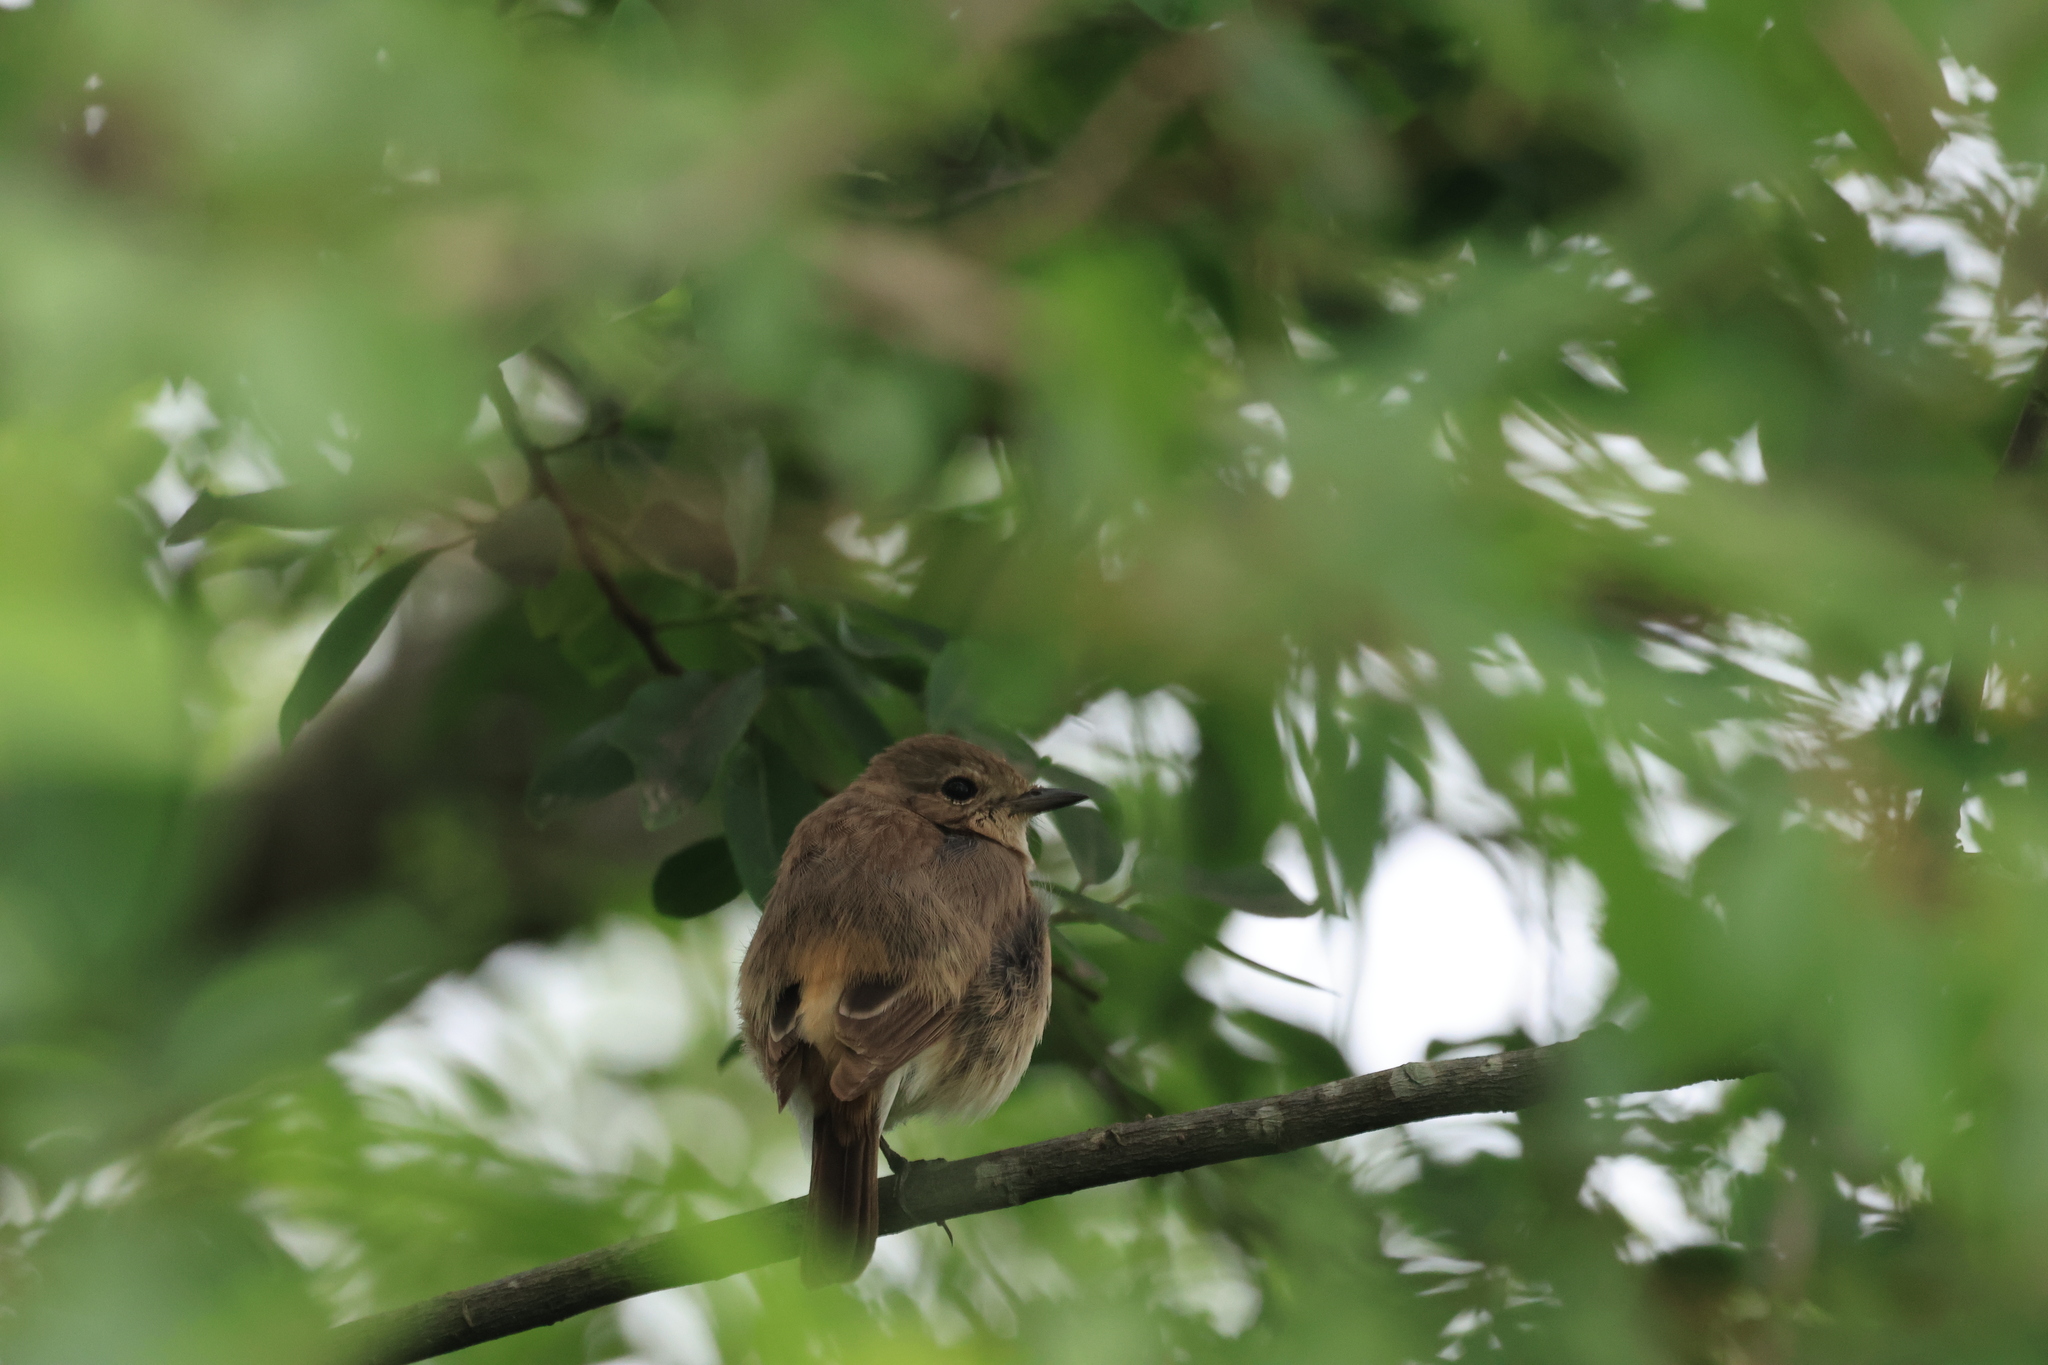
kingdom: Animalia
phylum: Chordata
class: Aves
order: Passeriformes
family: Muscicapidae
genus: Saxicola
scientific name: Saxicola caprata
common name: Pied bush chat
